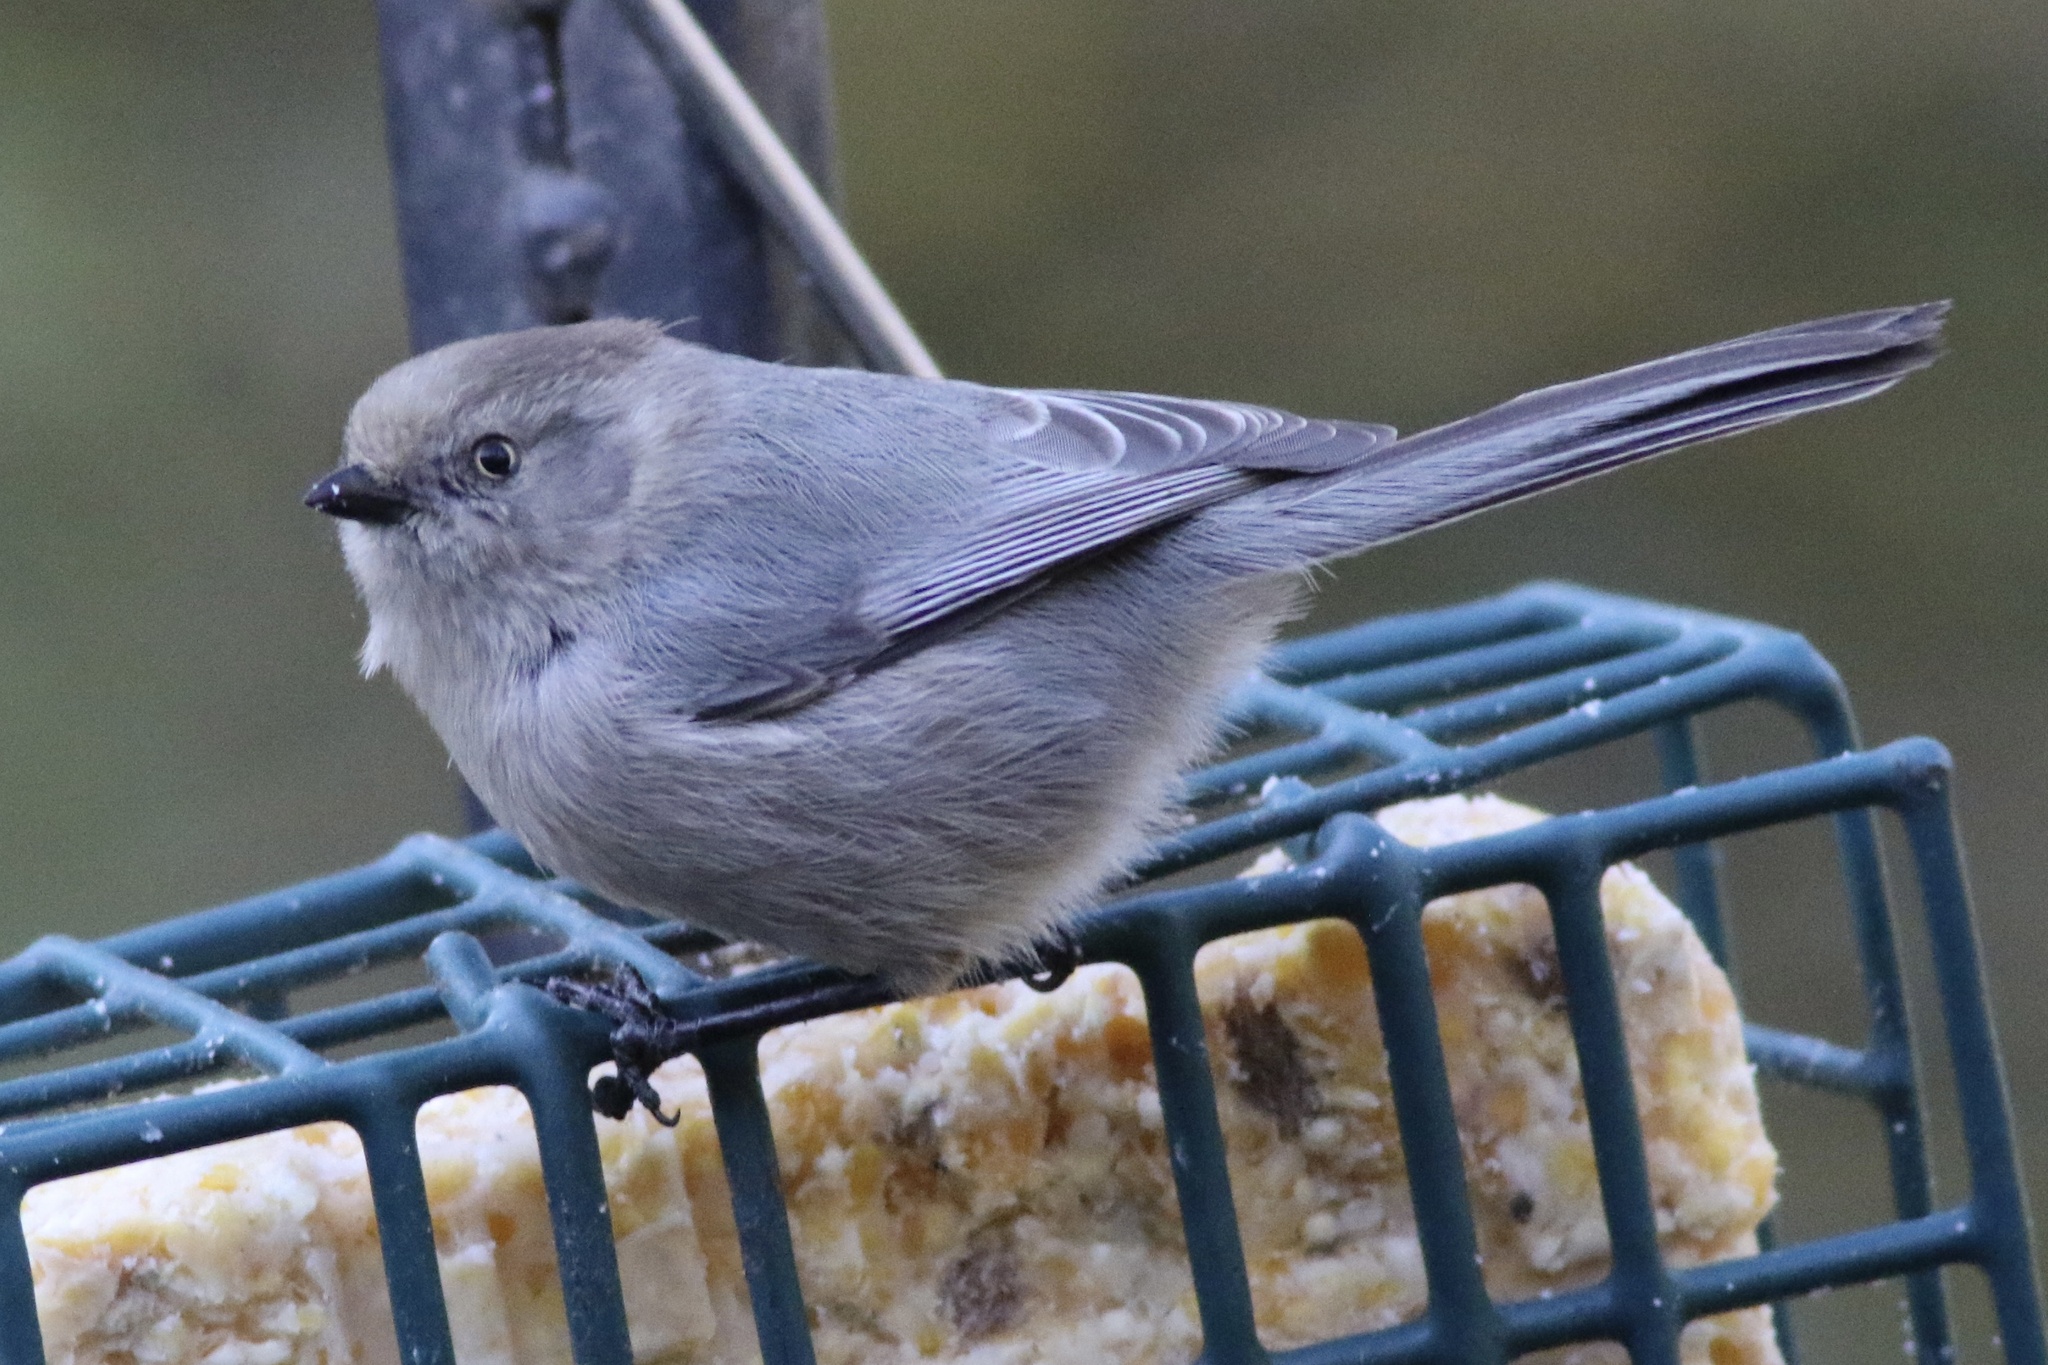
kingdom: Animalia
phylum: Chordata
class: Aves
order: Passeriformes
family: Aegithalidae
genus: Psaltriparus
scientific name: Psaltriparus minimus
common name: American bushtit
